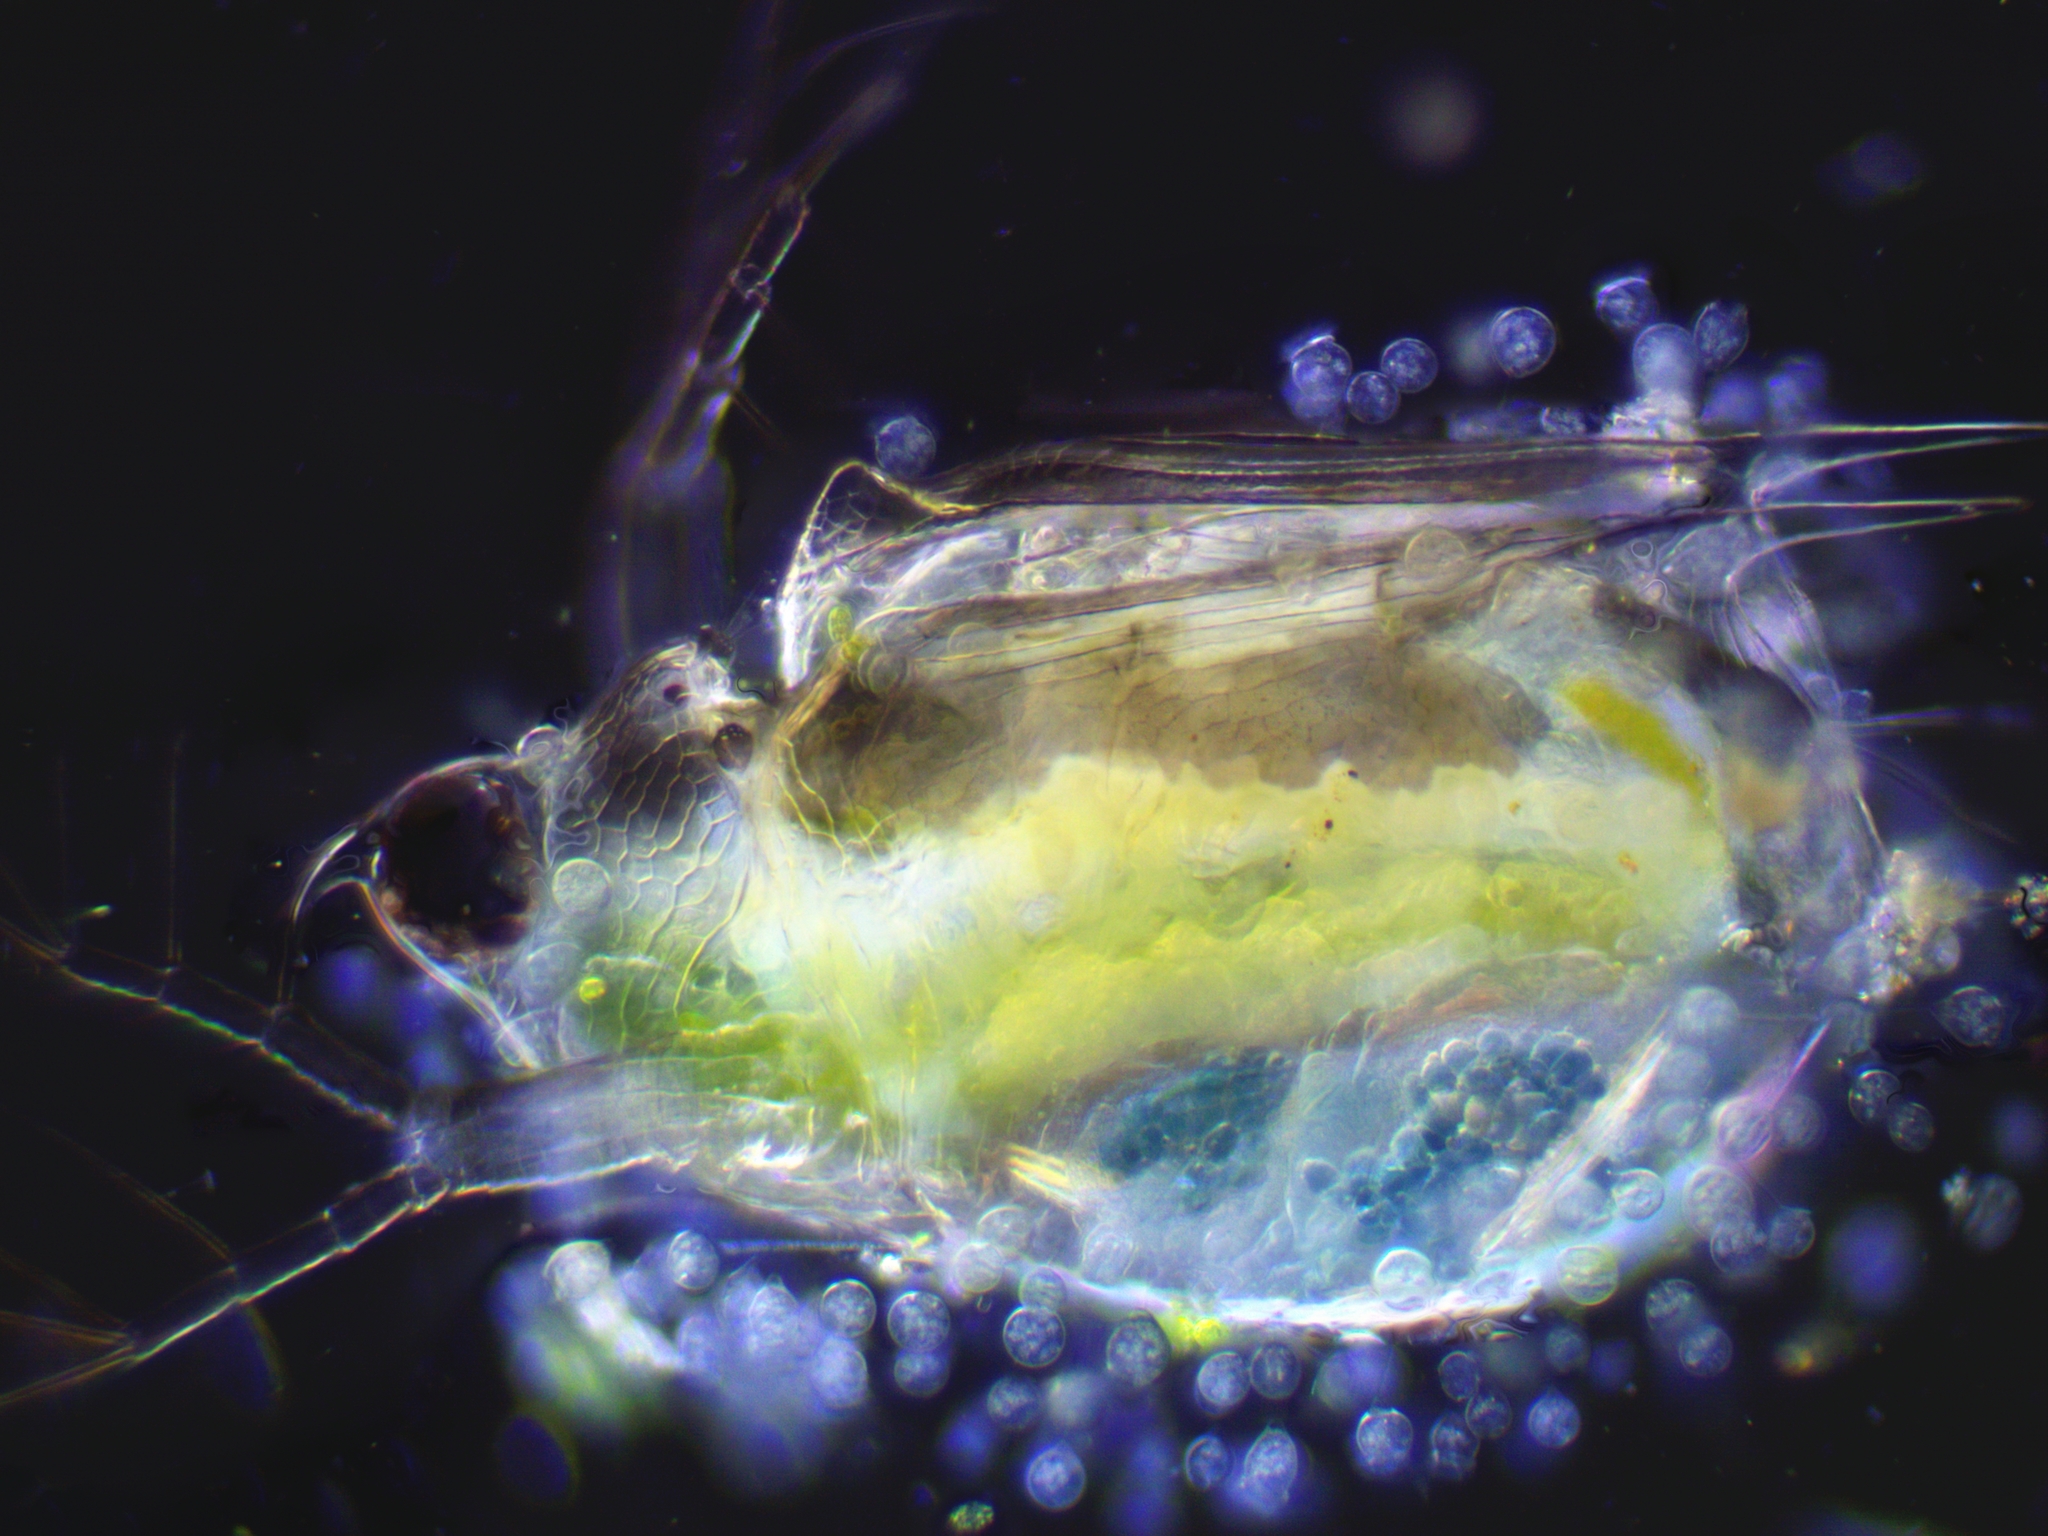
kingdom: Animalia
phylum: Arthropoda
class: Branchiopoda
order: Diplostraca
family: Daphniidae
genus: Scapholeberis
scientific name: Scapholeberis mucronata
